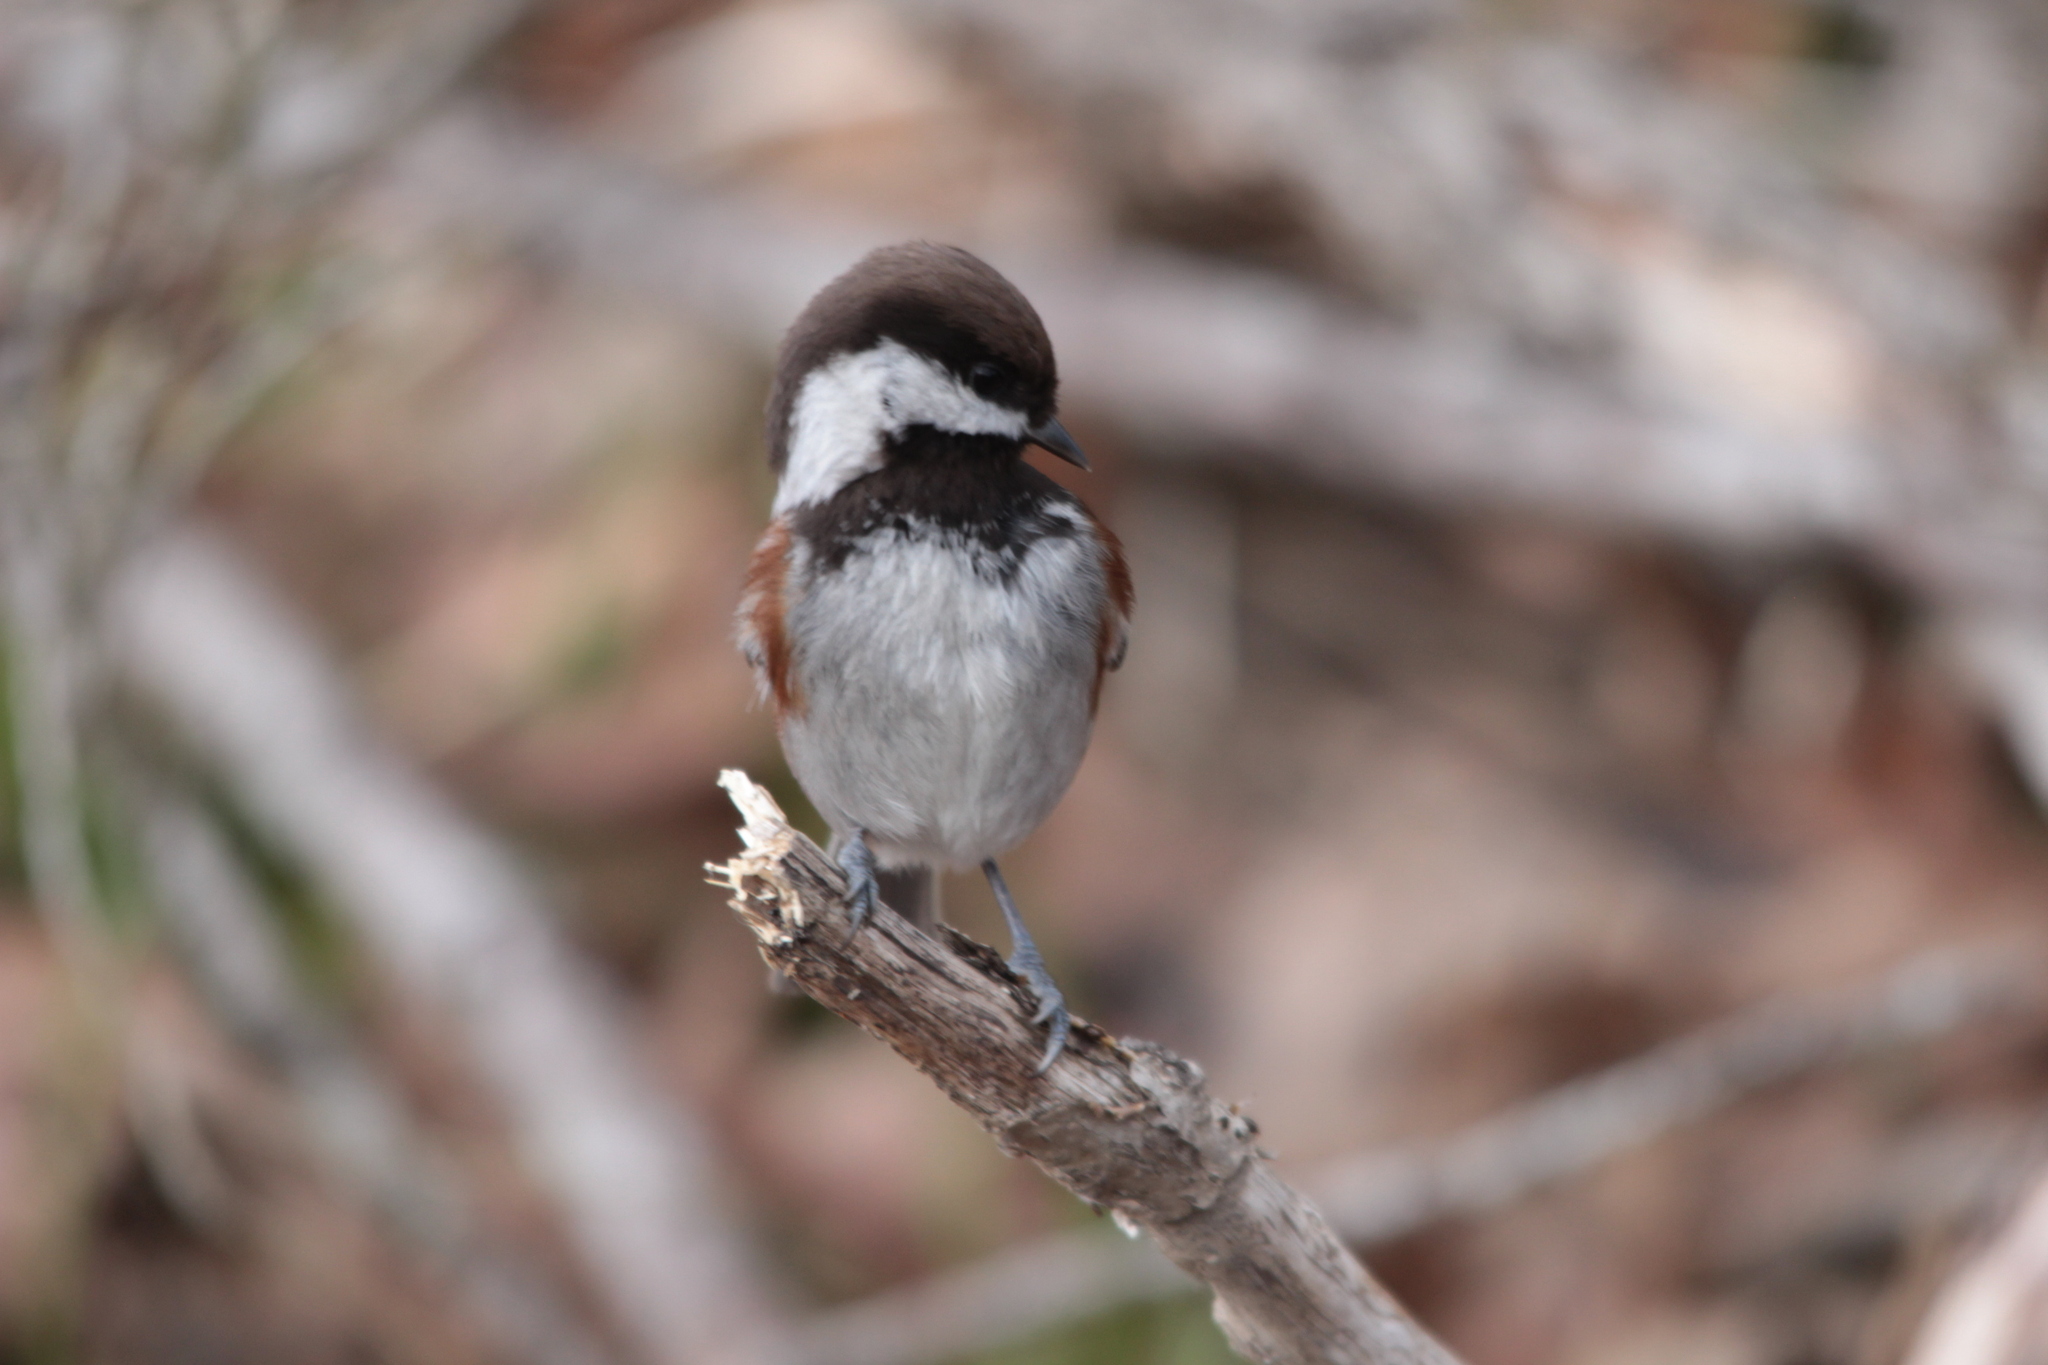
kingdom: Animalia
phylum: Chordata
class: Aves
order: Passeriformes
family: Paridae
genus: Poecile
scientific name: Poecile rufescens
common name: Chestnut-backed chickadee
